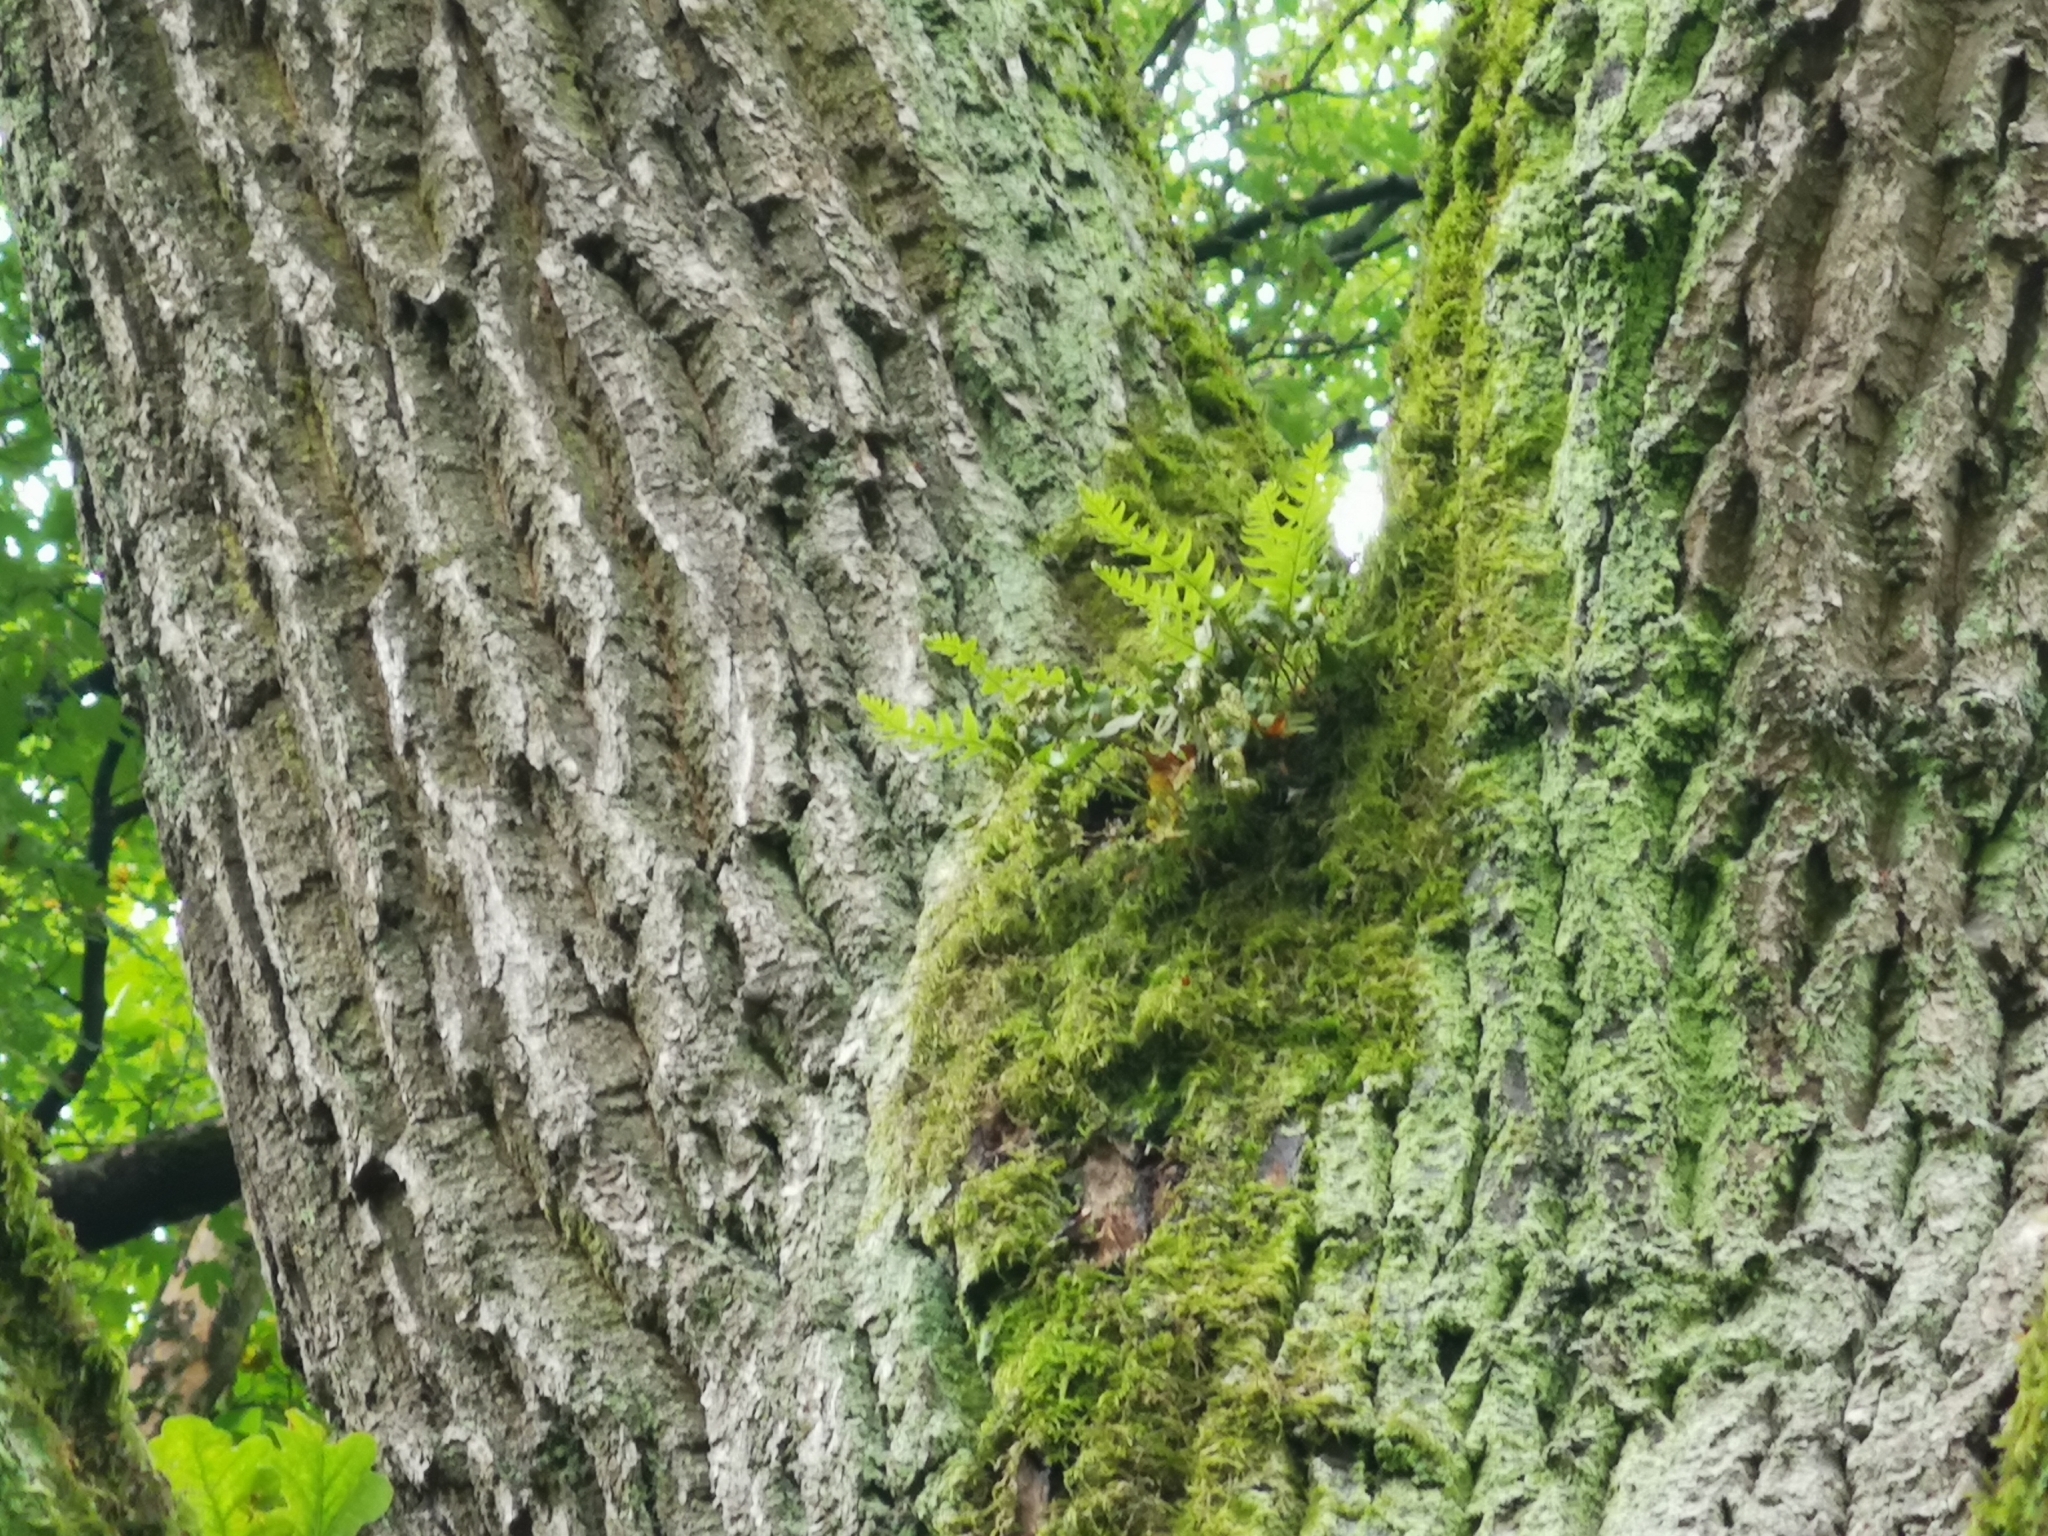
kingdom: Plantae
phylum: Tracheophyta
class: Polypodiopsida
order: Polypodiales
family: Polypodiaceae
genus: Polypodium
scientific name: Polypodium vulgare
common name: Common polypody
